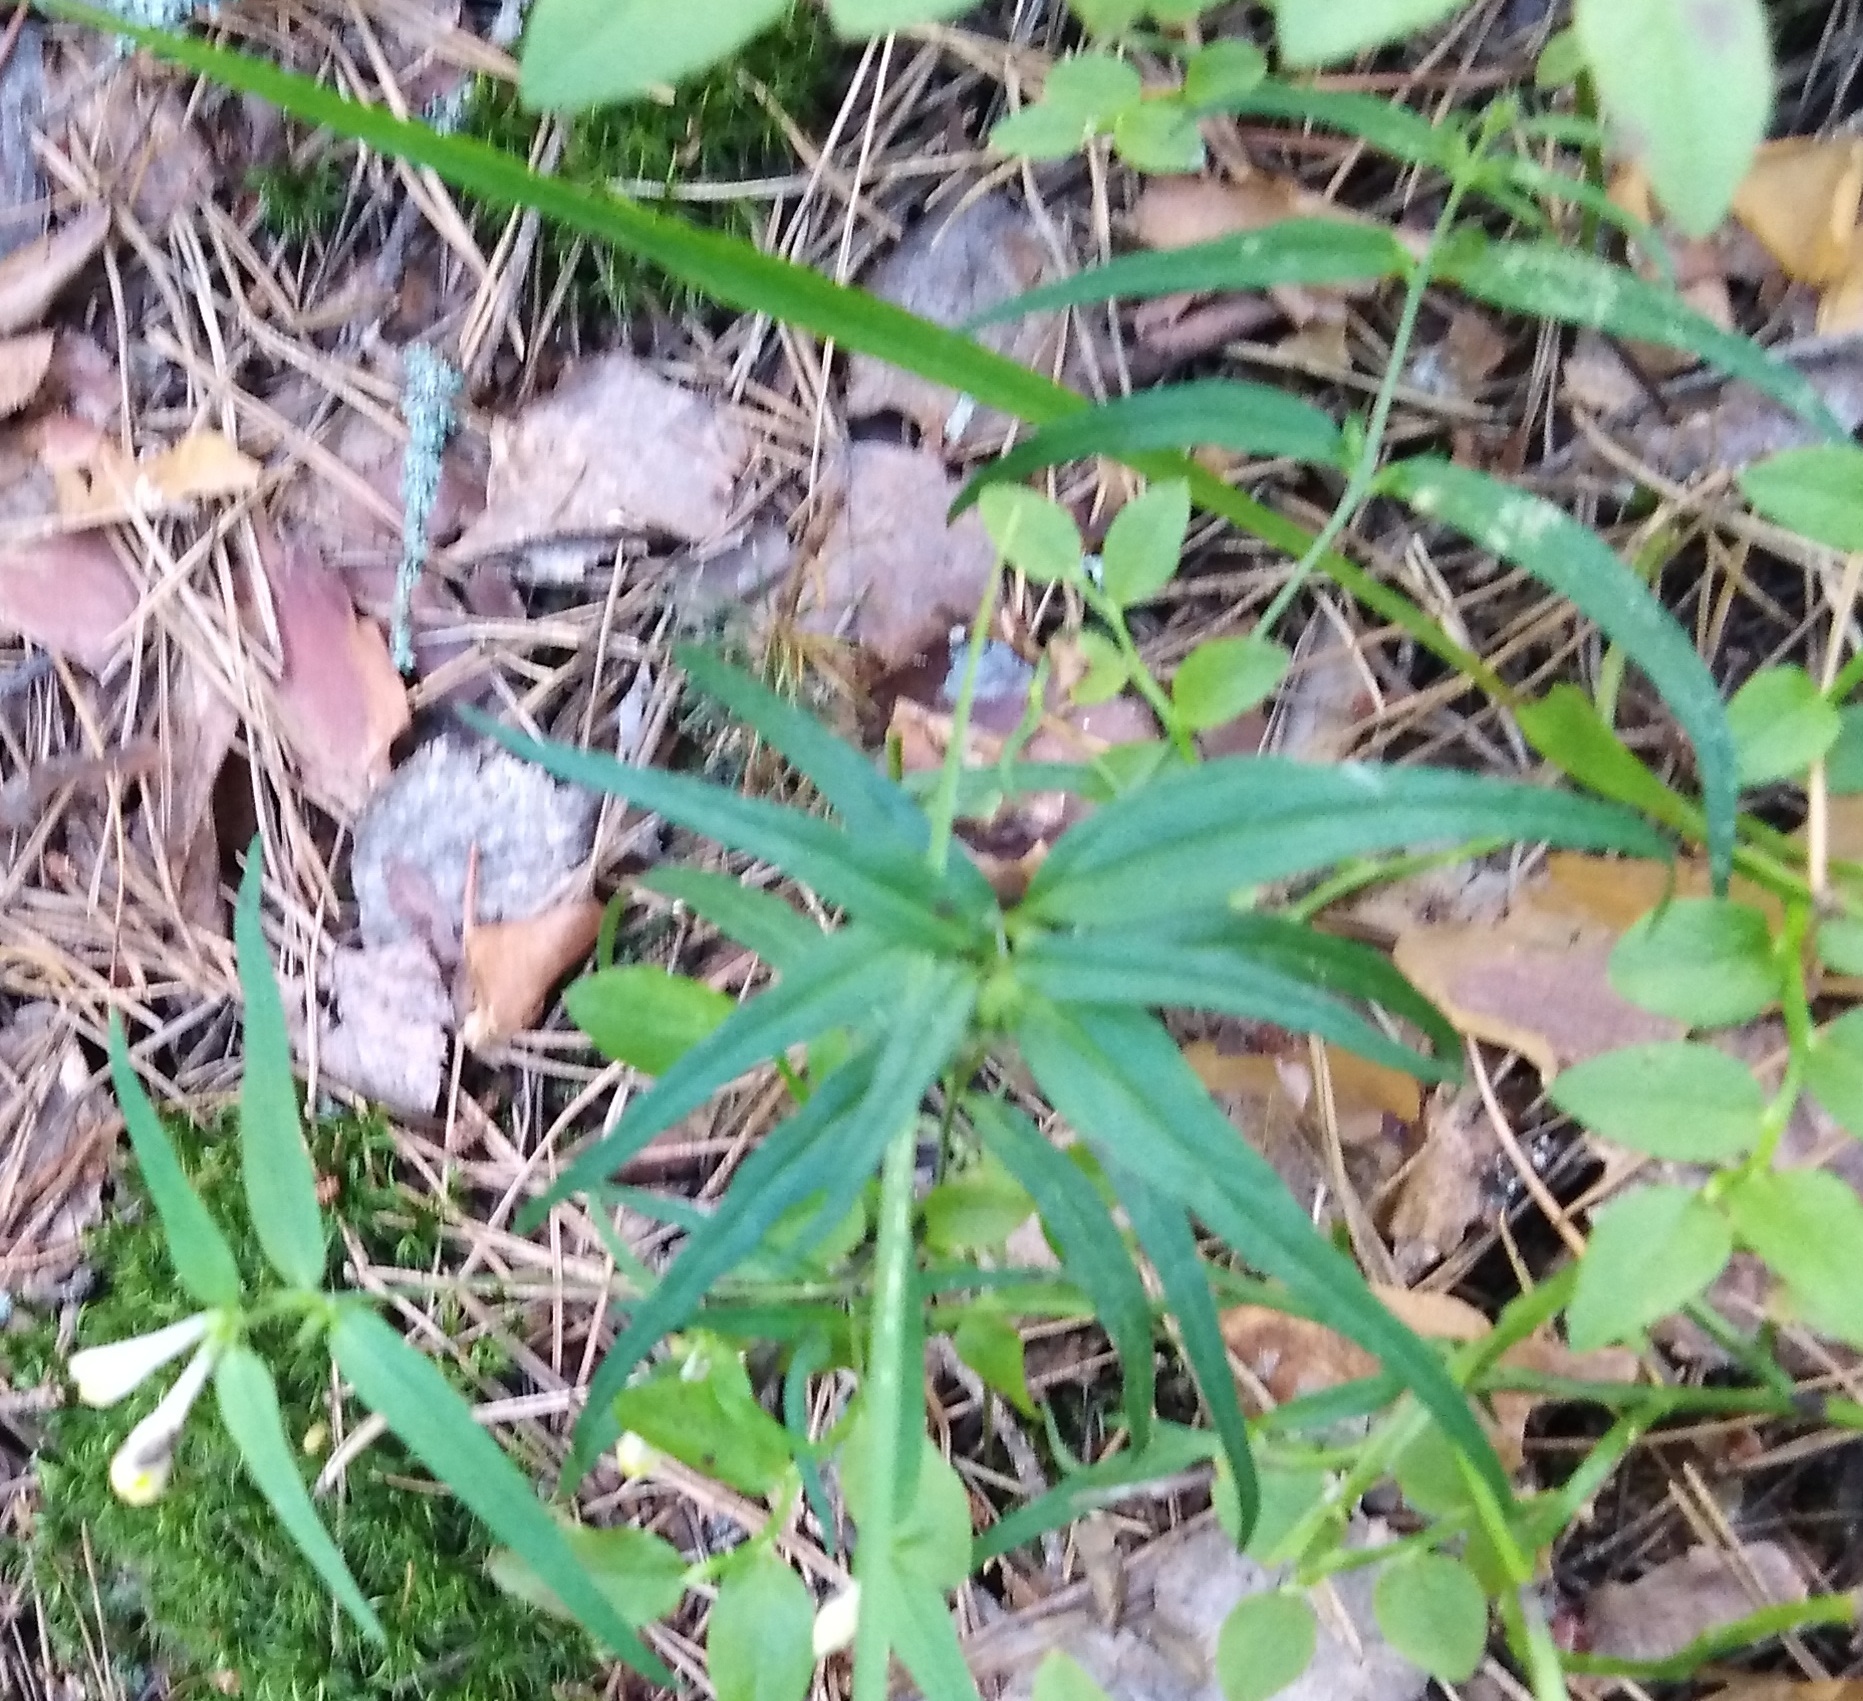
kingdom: Plantae
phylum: Tracheophyta
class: Magnoliopsida
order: Lamiales
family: Orobanchaceae
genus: Melampyrum
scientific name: Melampyrum pratense
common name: Common cow-wheat
